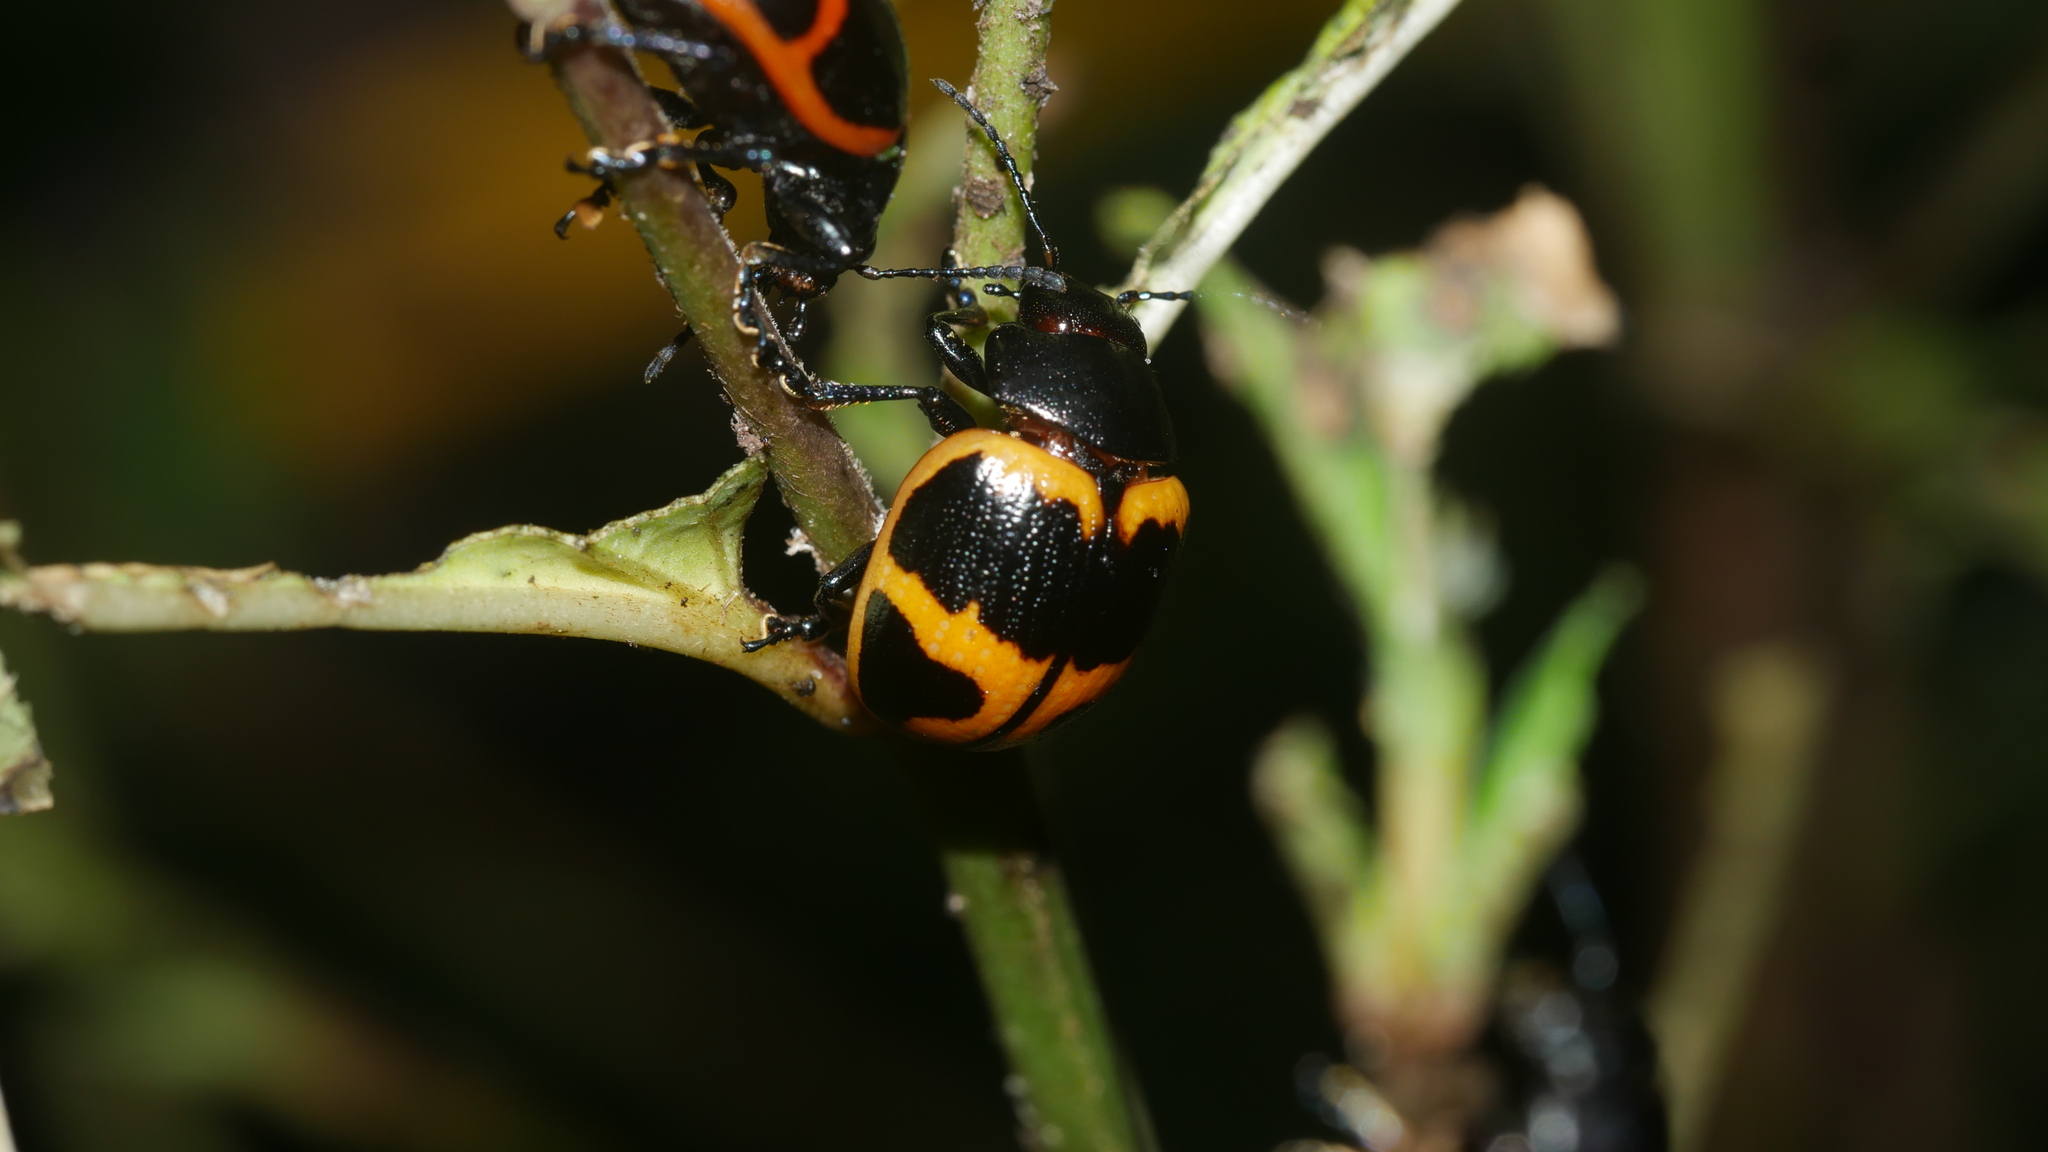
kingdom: Animalia
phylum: Arthropoda
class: Insecta
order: Coleoptera
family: Chrysomelidae
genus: Labidomera
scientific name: Labidomera clivicollis
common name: Swamp milkweed leaf beetle
